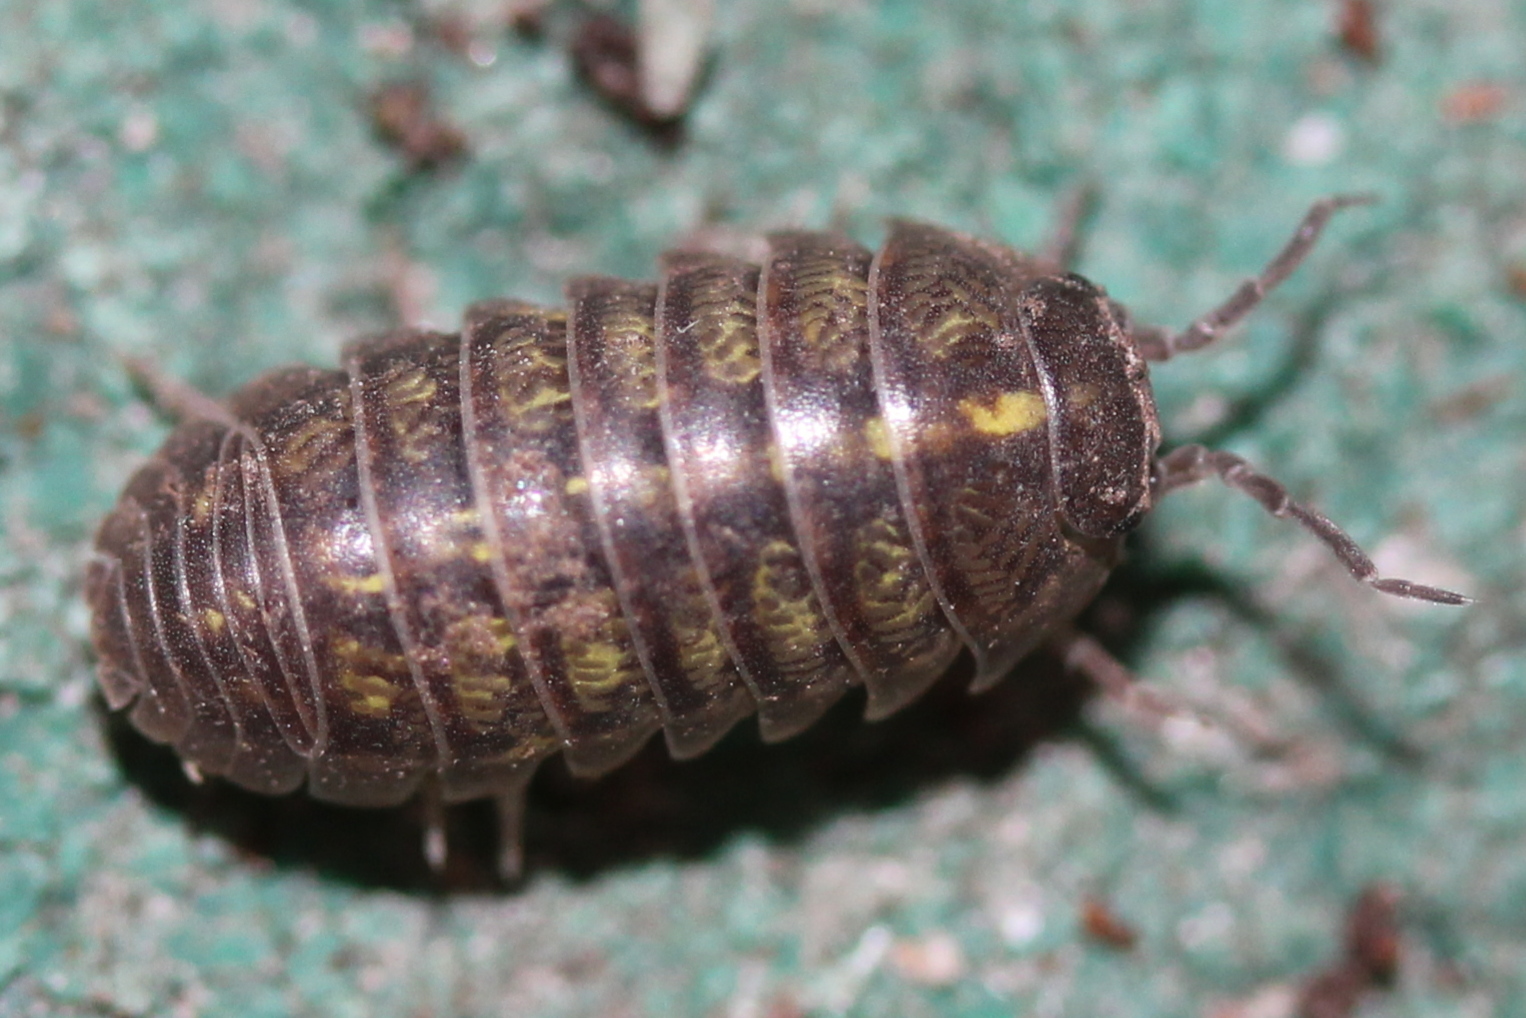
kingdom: Animalia
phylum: Arthropoda
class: Malacostraca
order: Isopoda
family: Armadillidiidae
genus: Armadillidium
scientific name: Armadillidium vulgare
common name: Common pill woodlouse
